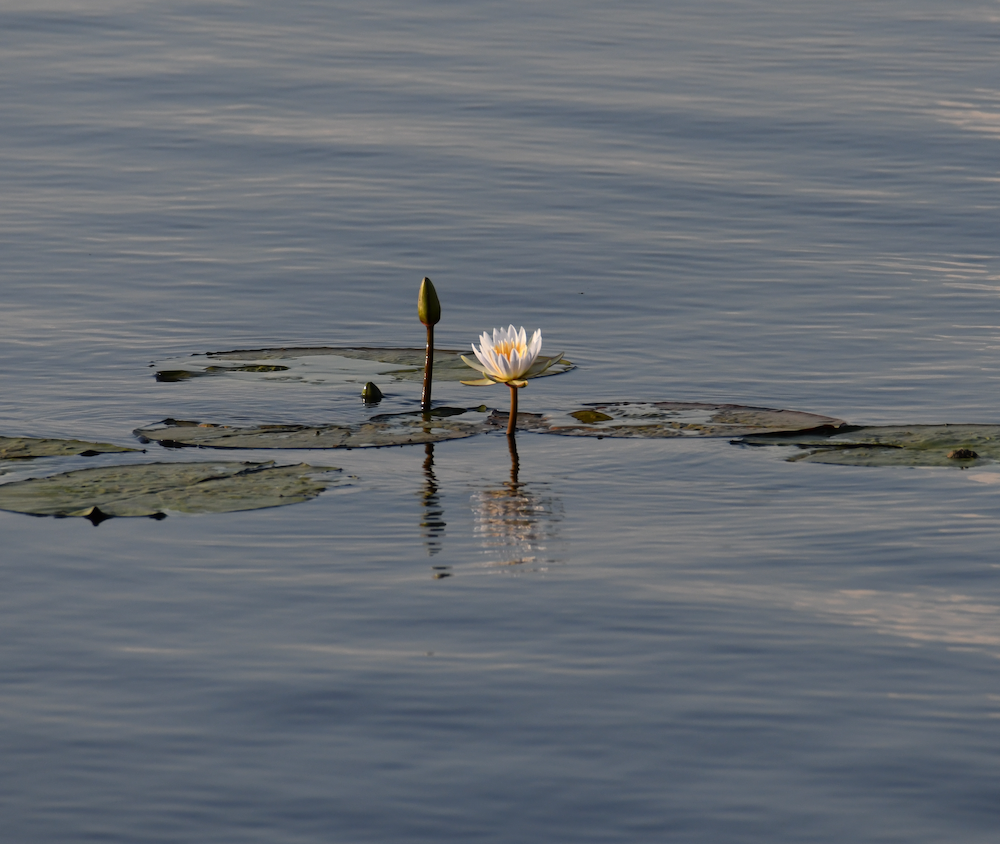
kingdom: Plantae
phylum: Tracheophyta
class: Magnoliopsida
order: Nymphaeales
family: Nymphaeaceae
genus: Nymphaea
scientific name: Nymphaea nouchali
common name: Blue lotus
